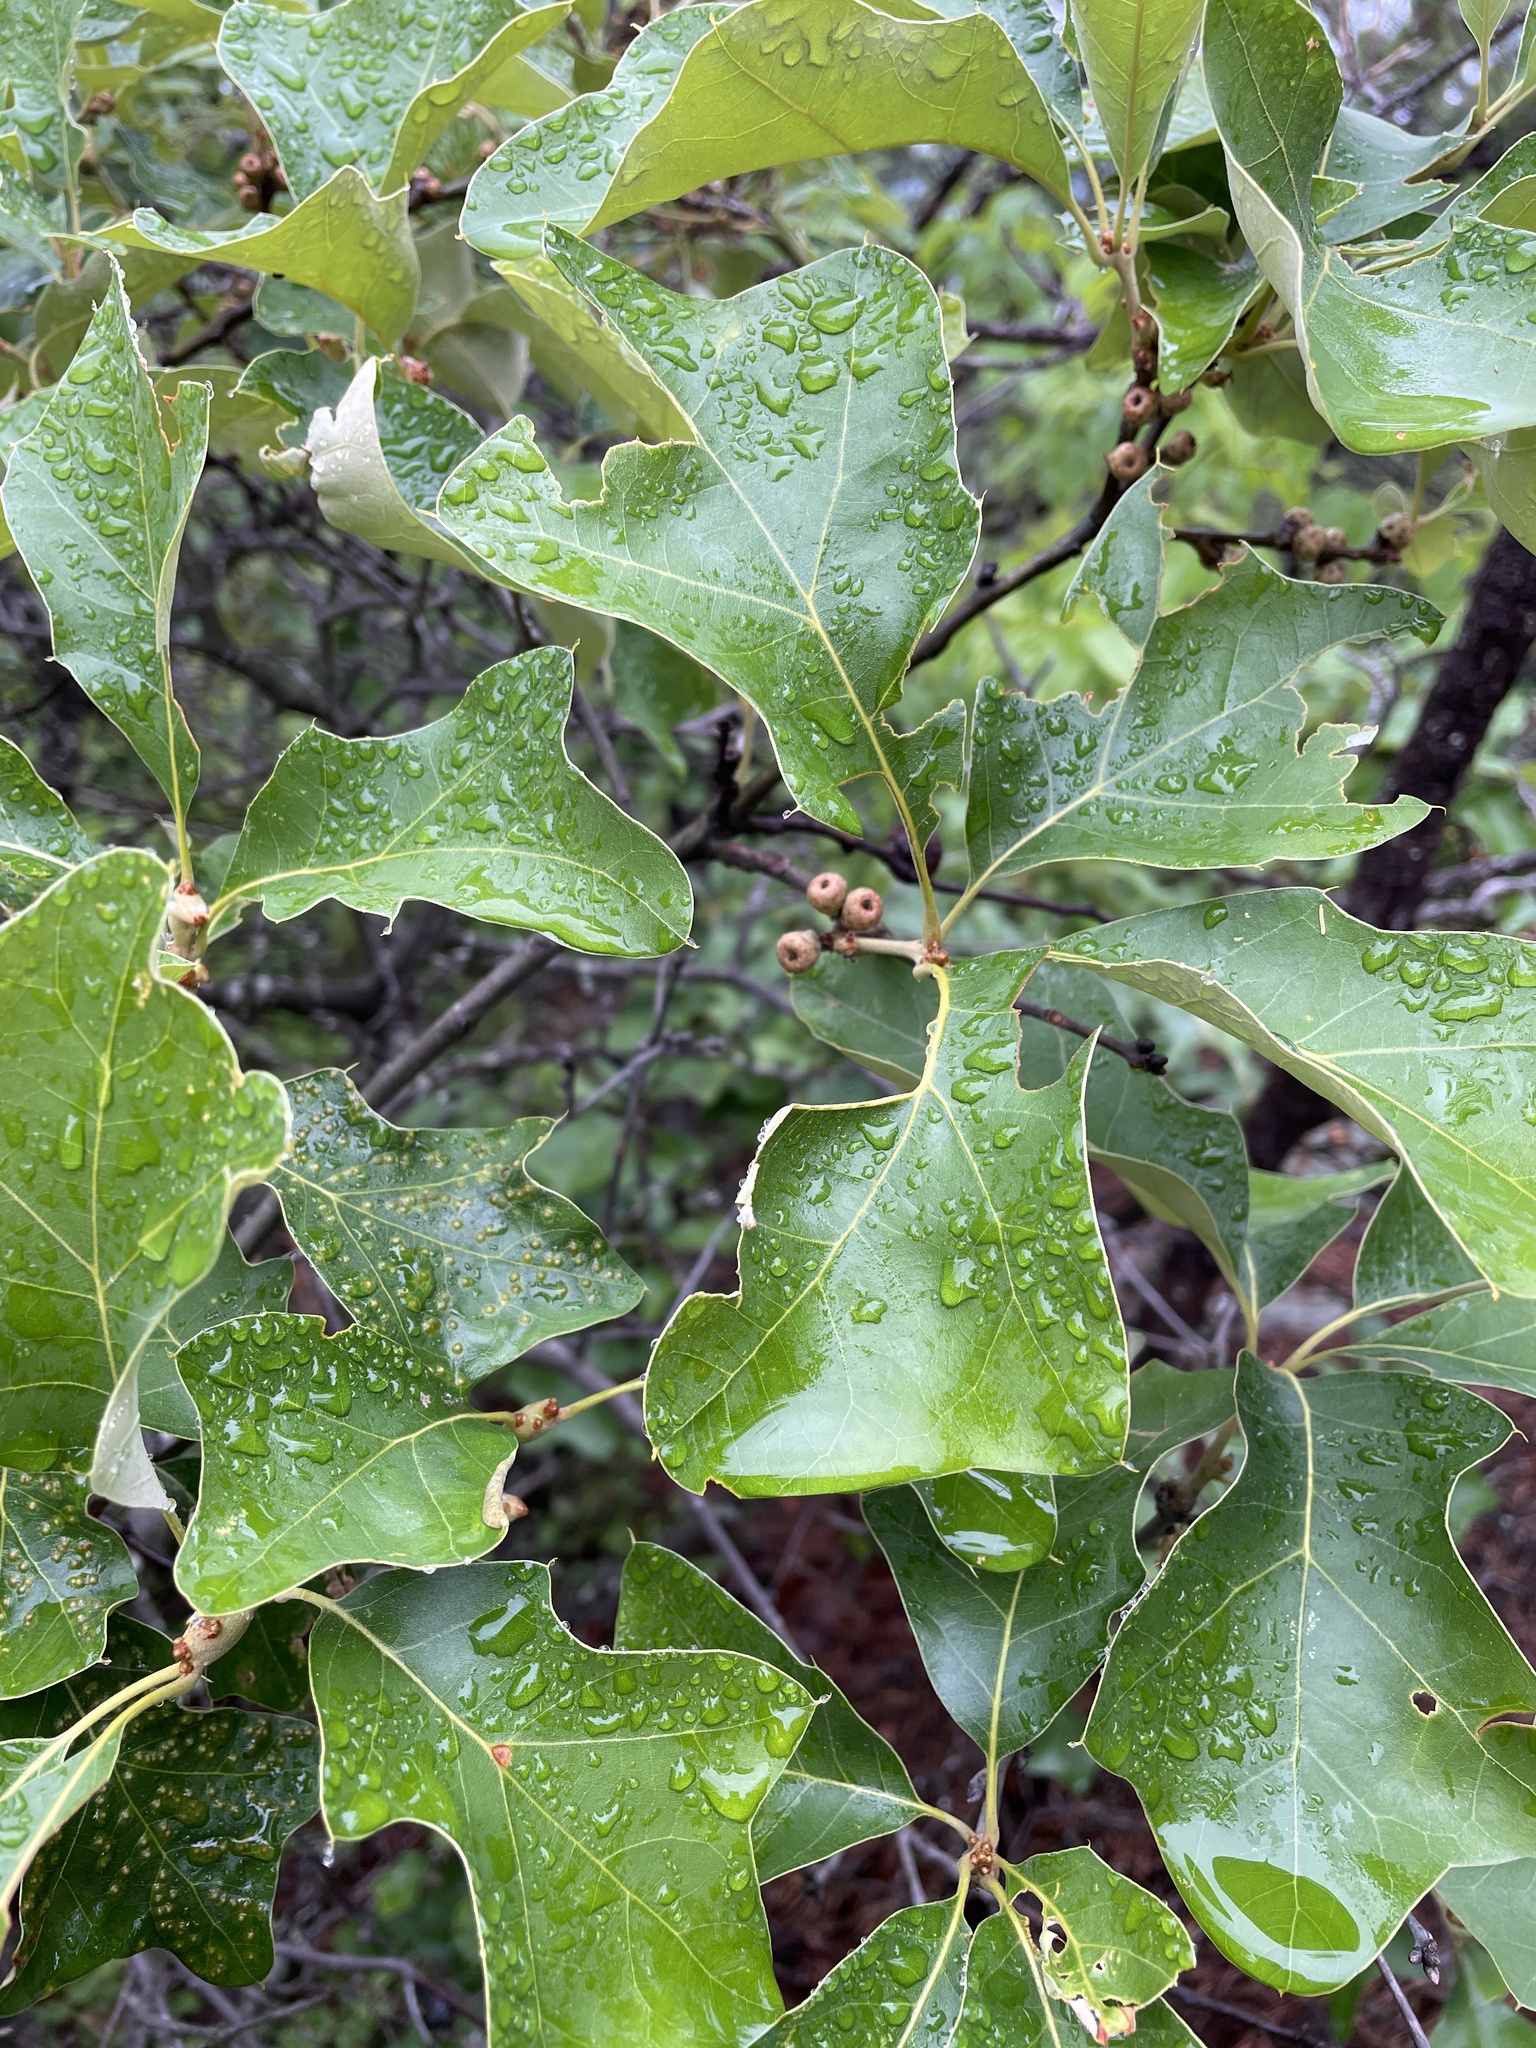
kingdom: Plantae
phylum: Tracheophyta
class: Magnoliopsida
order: Fagales
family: Fagaceae
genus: Quercus
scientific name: Quercus ilicifolia
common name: Bear oak
